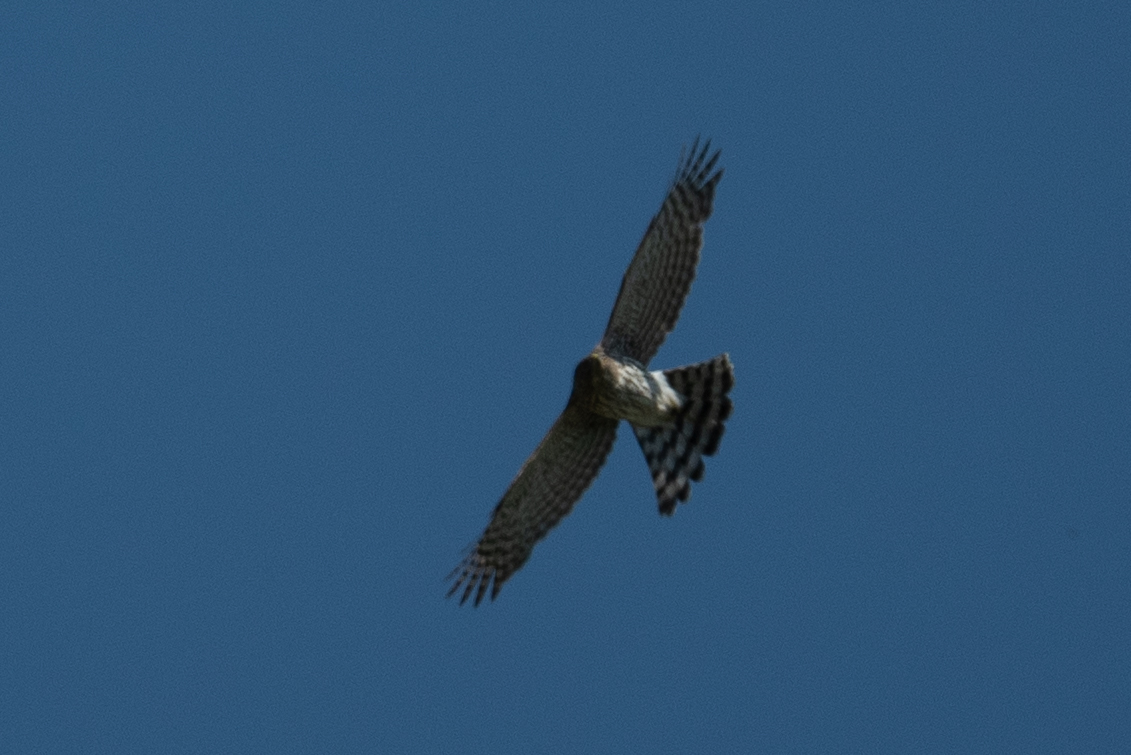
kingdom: Animalia
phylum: Chordata
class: Aves
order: Accipitriformes
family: Accipitridae
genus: Accipiter
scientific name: Accipiter cooperii
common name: Cooper's hawk
